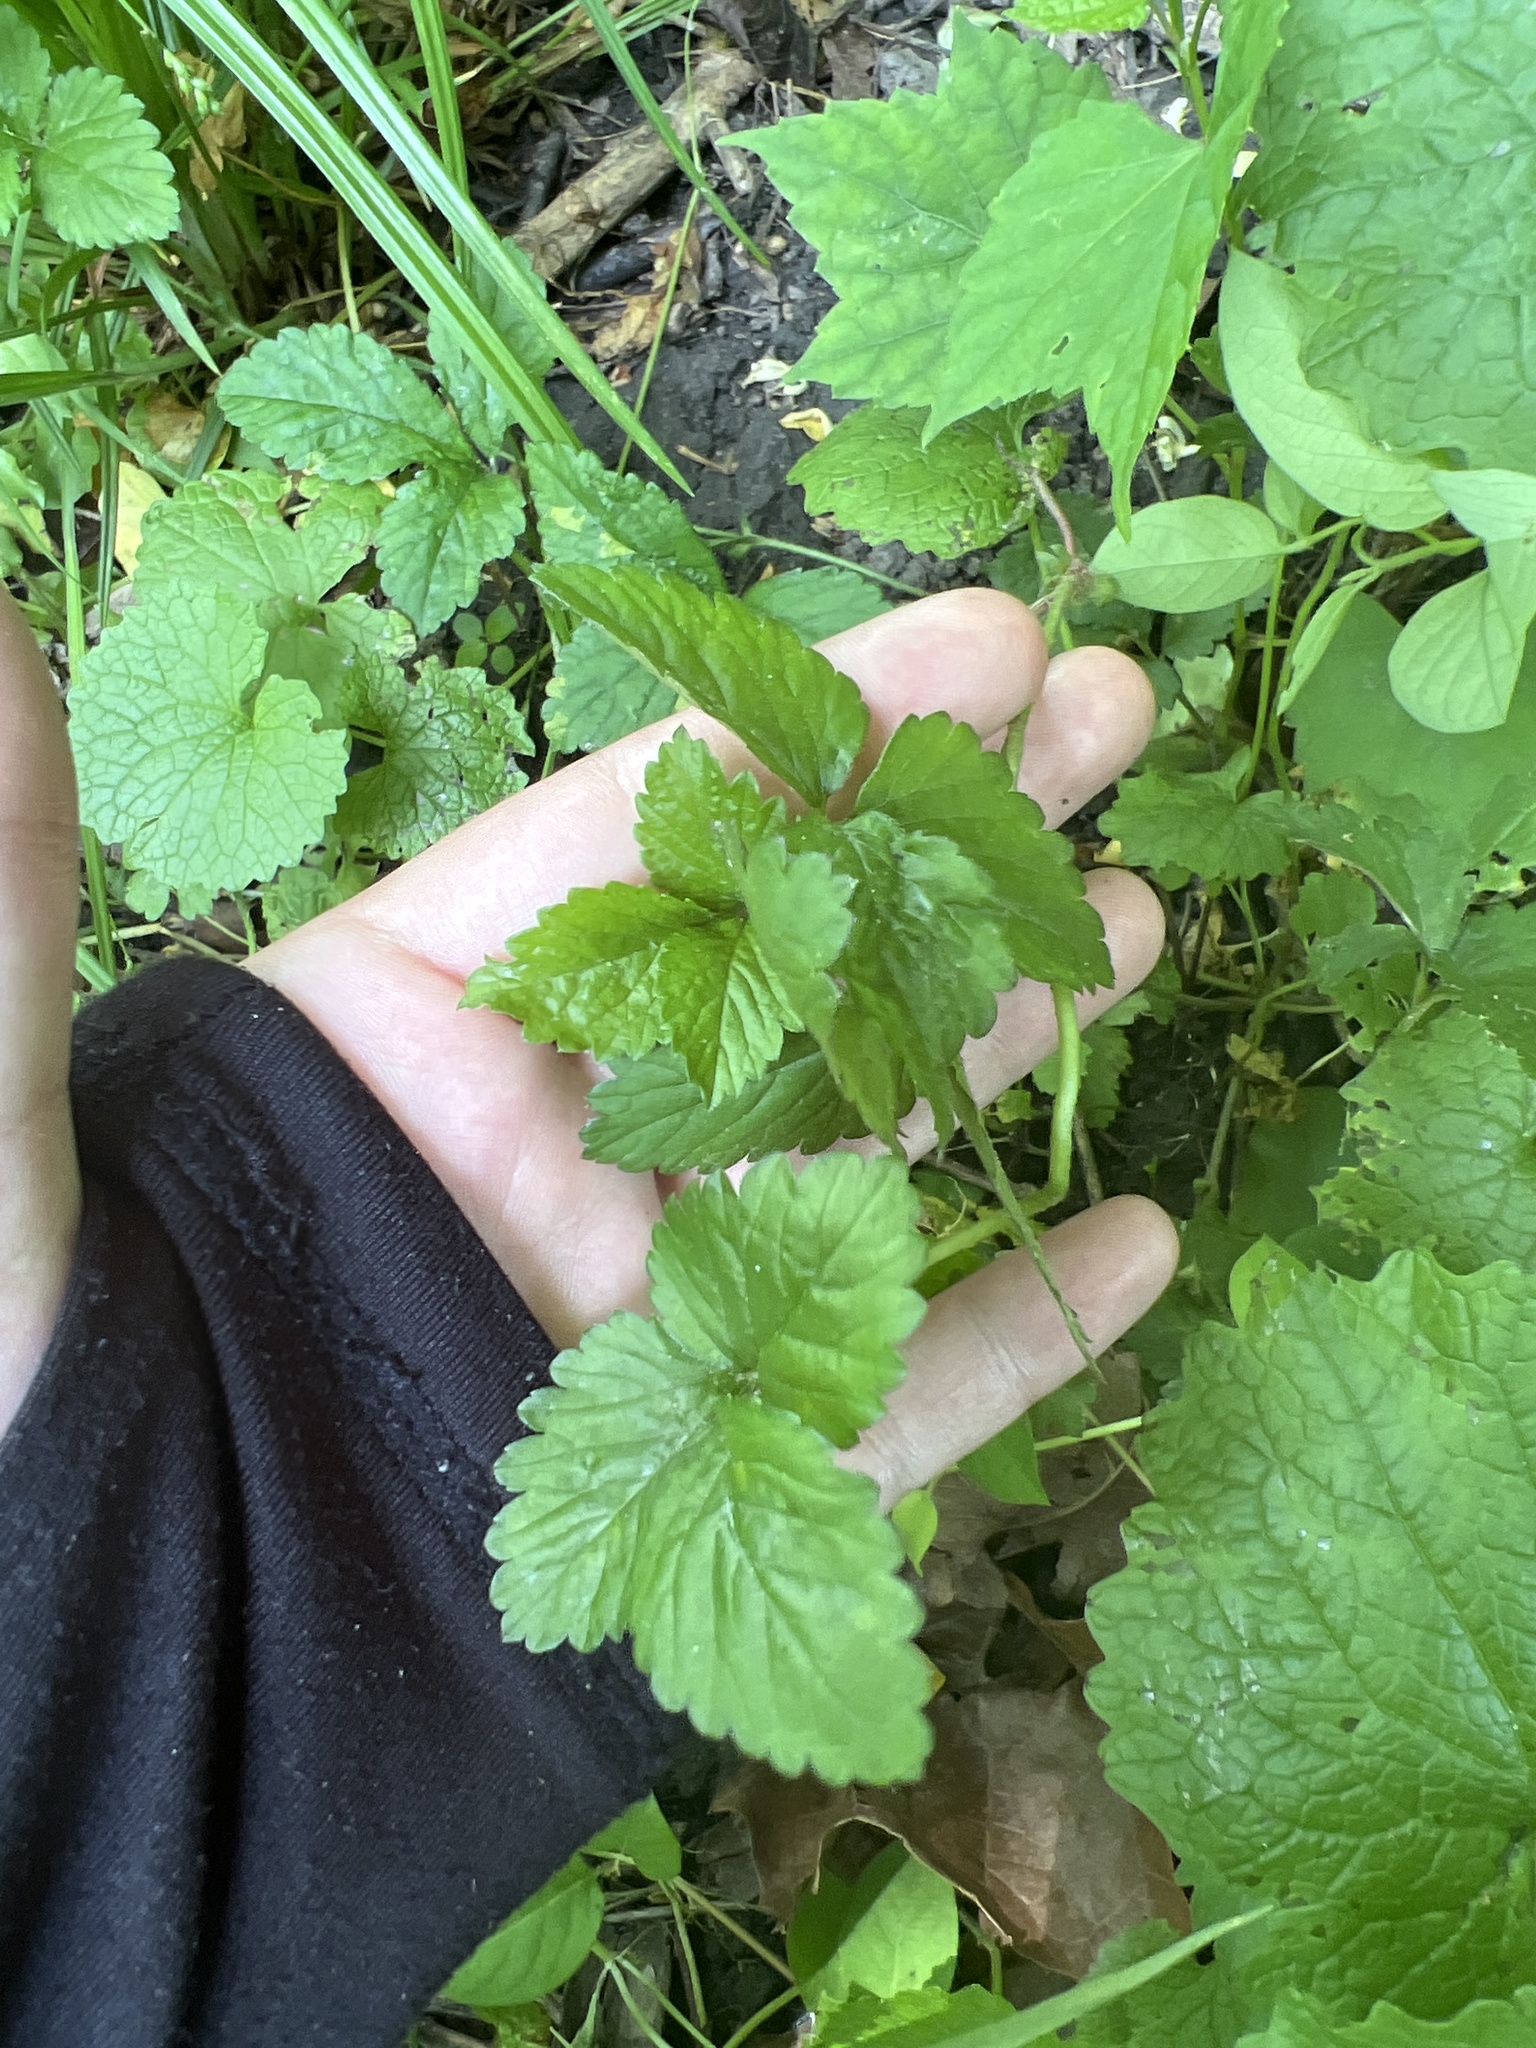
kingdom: Plantae
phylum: Tracheophyta
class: Magnoliopsida
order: Rosales
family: Rosaceae
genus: Potentilla
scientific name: Potentilla indica
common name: Yellow-flowered strawberry
